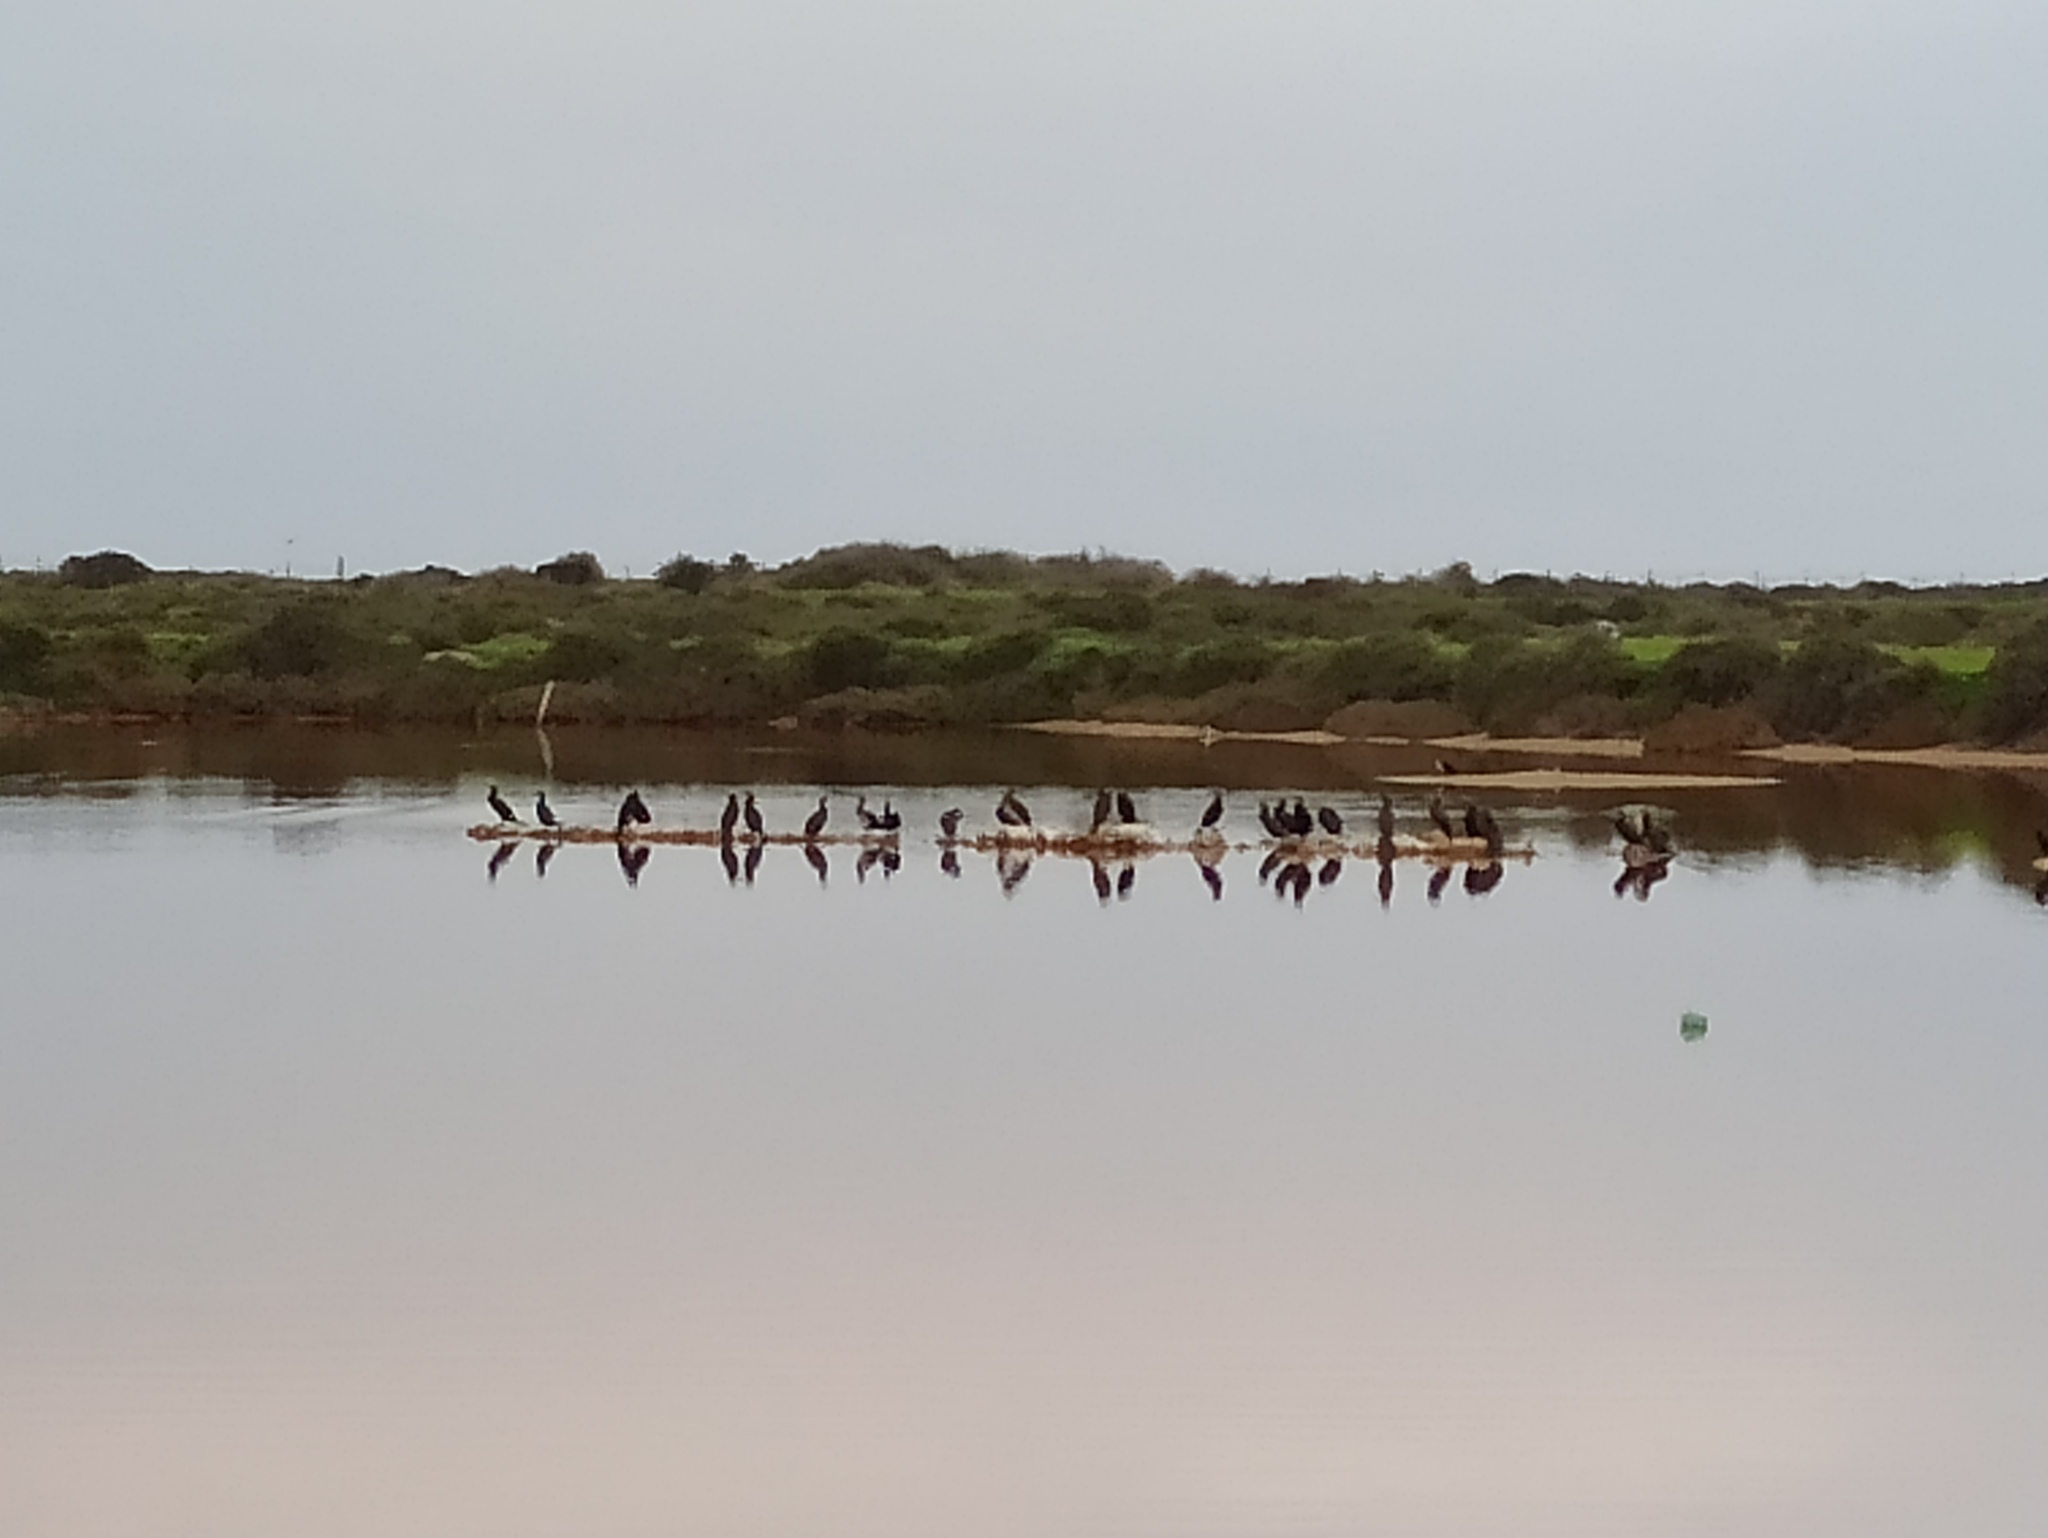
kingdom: Animalia
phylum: Chordata
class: Aves
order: Suliformes
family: Phalacrocoracidae
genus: Phalacrocorax
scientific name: Phalacrocorax carbo
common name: Great cormorant
